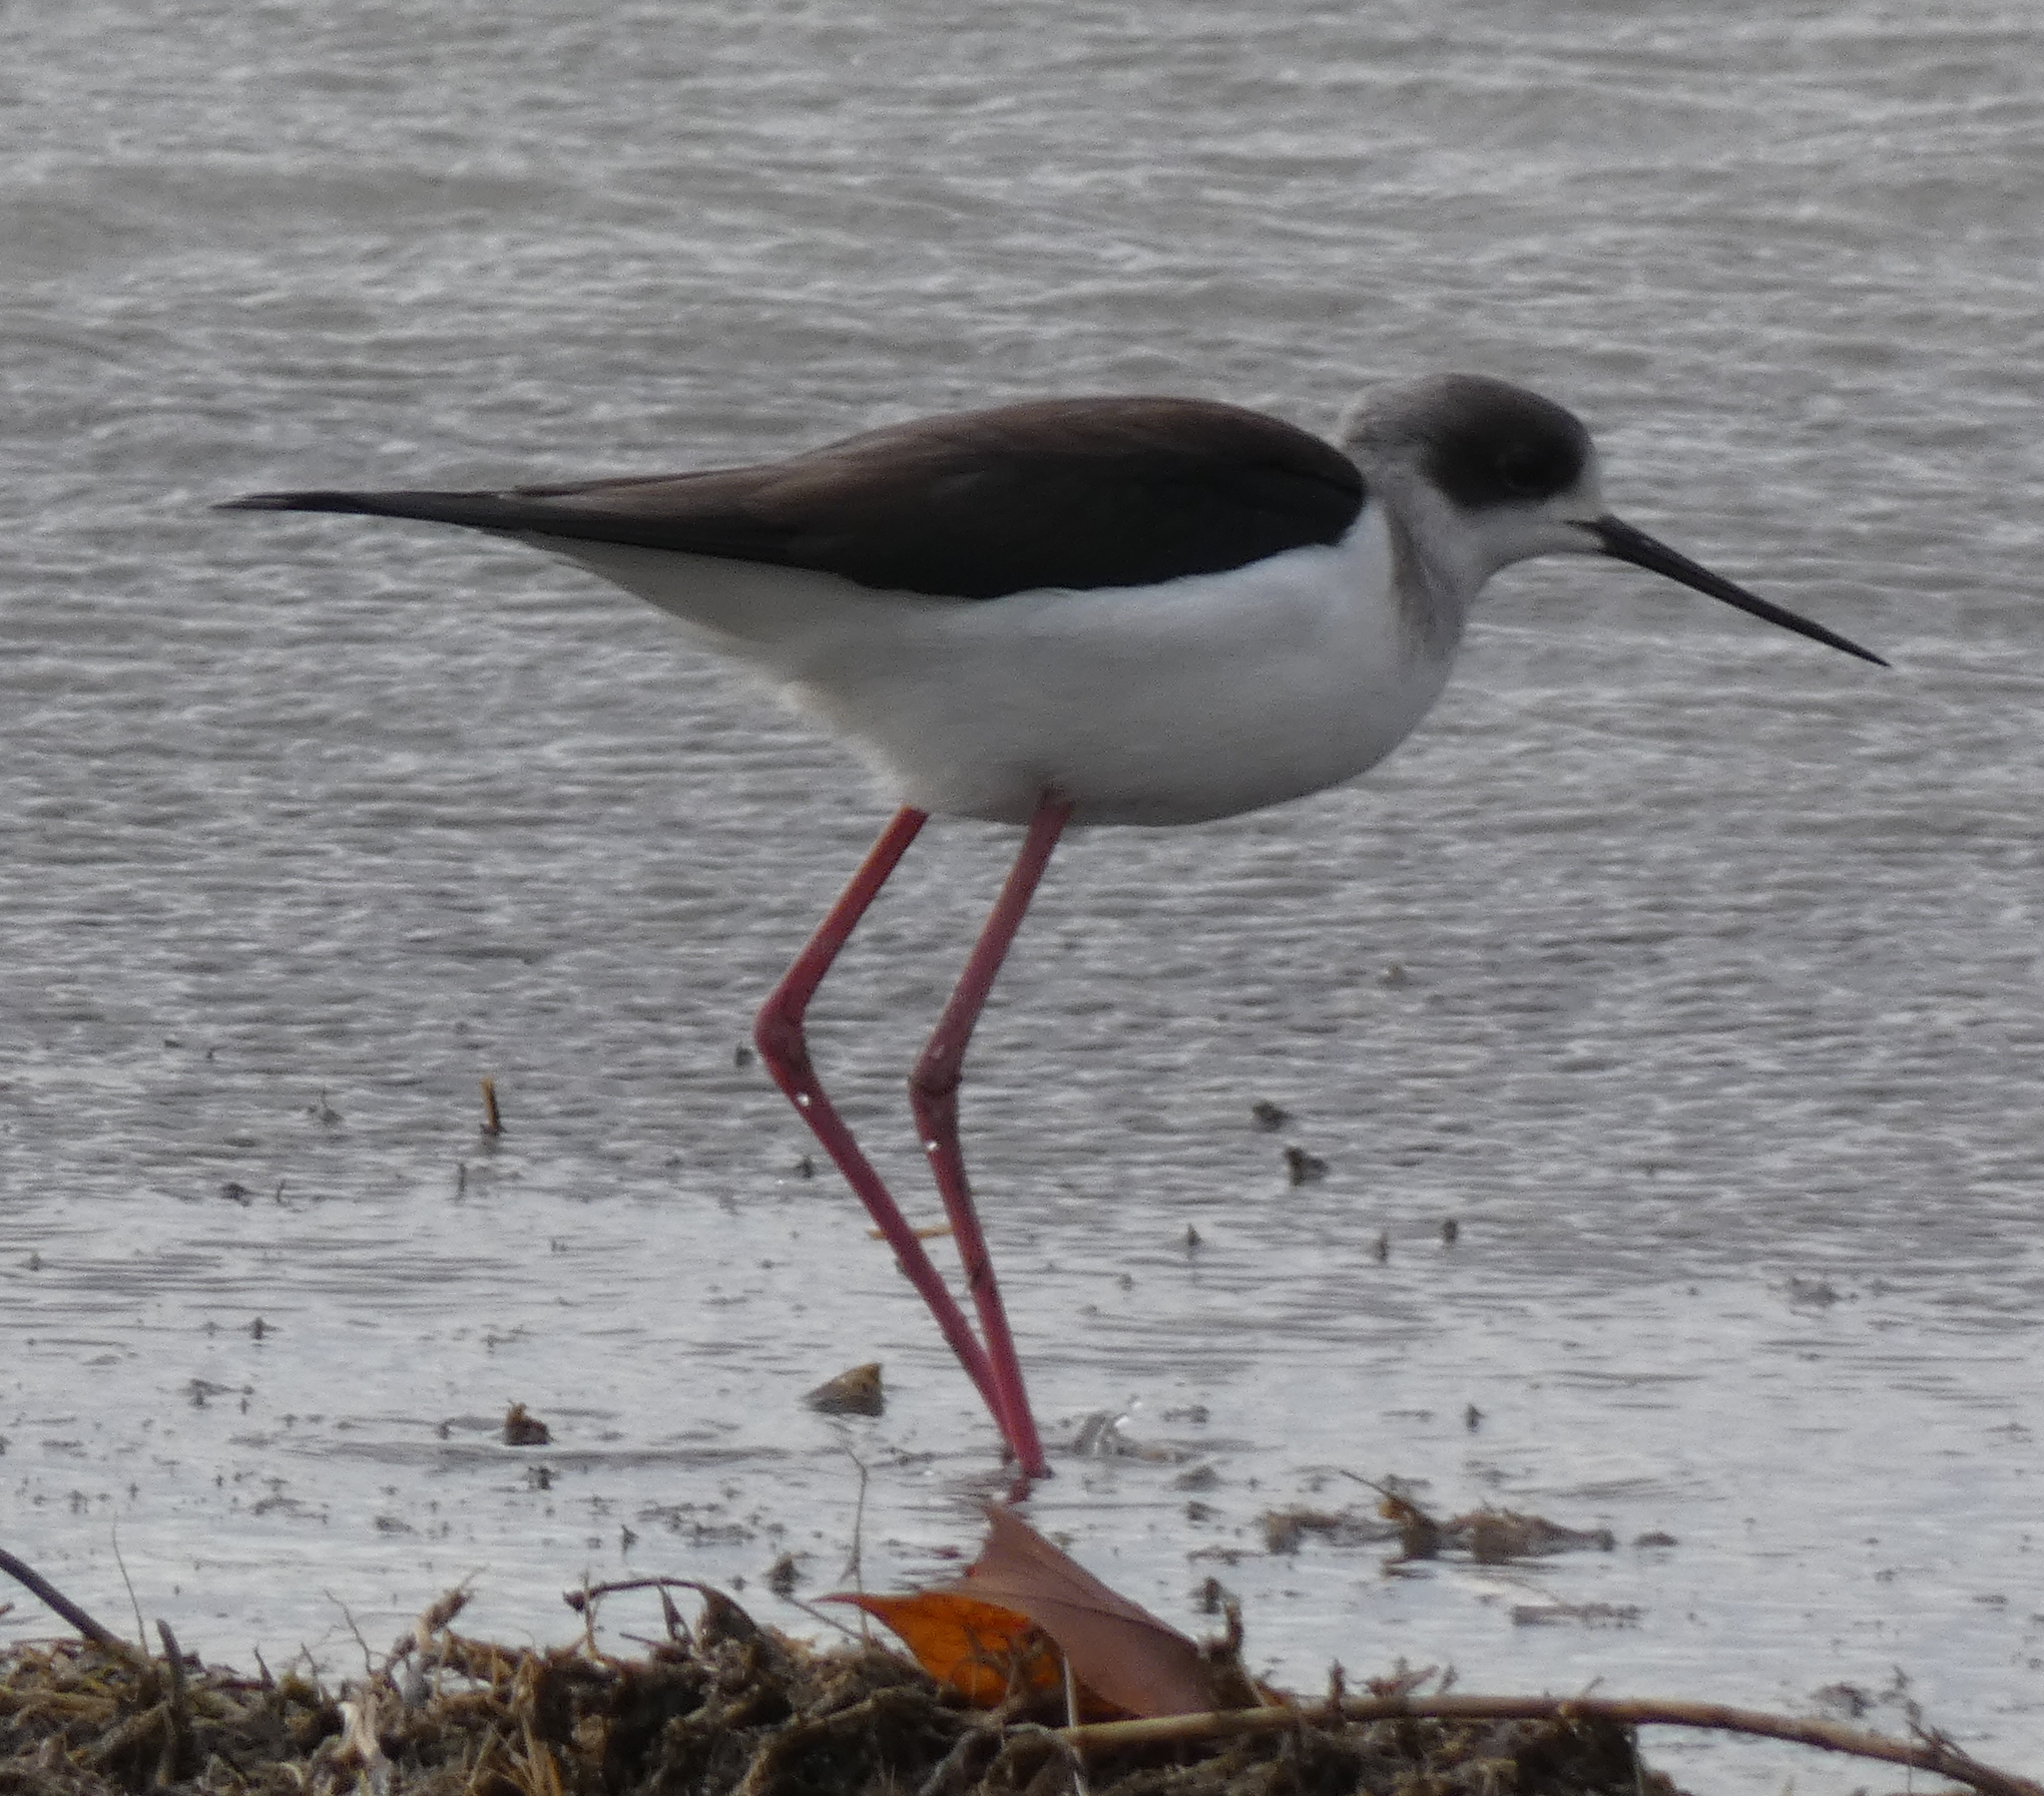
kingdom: Animalia
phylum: Chordata
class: Aves
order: Charadriiformes
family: Recurvirostridae
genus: Himantopus
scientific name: Himantopus himantopus
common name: Black-winged stilt
